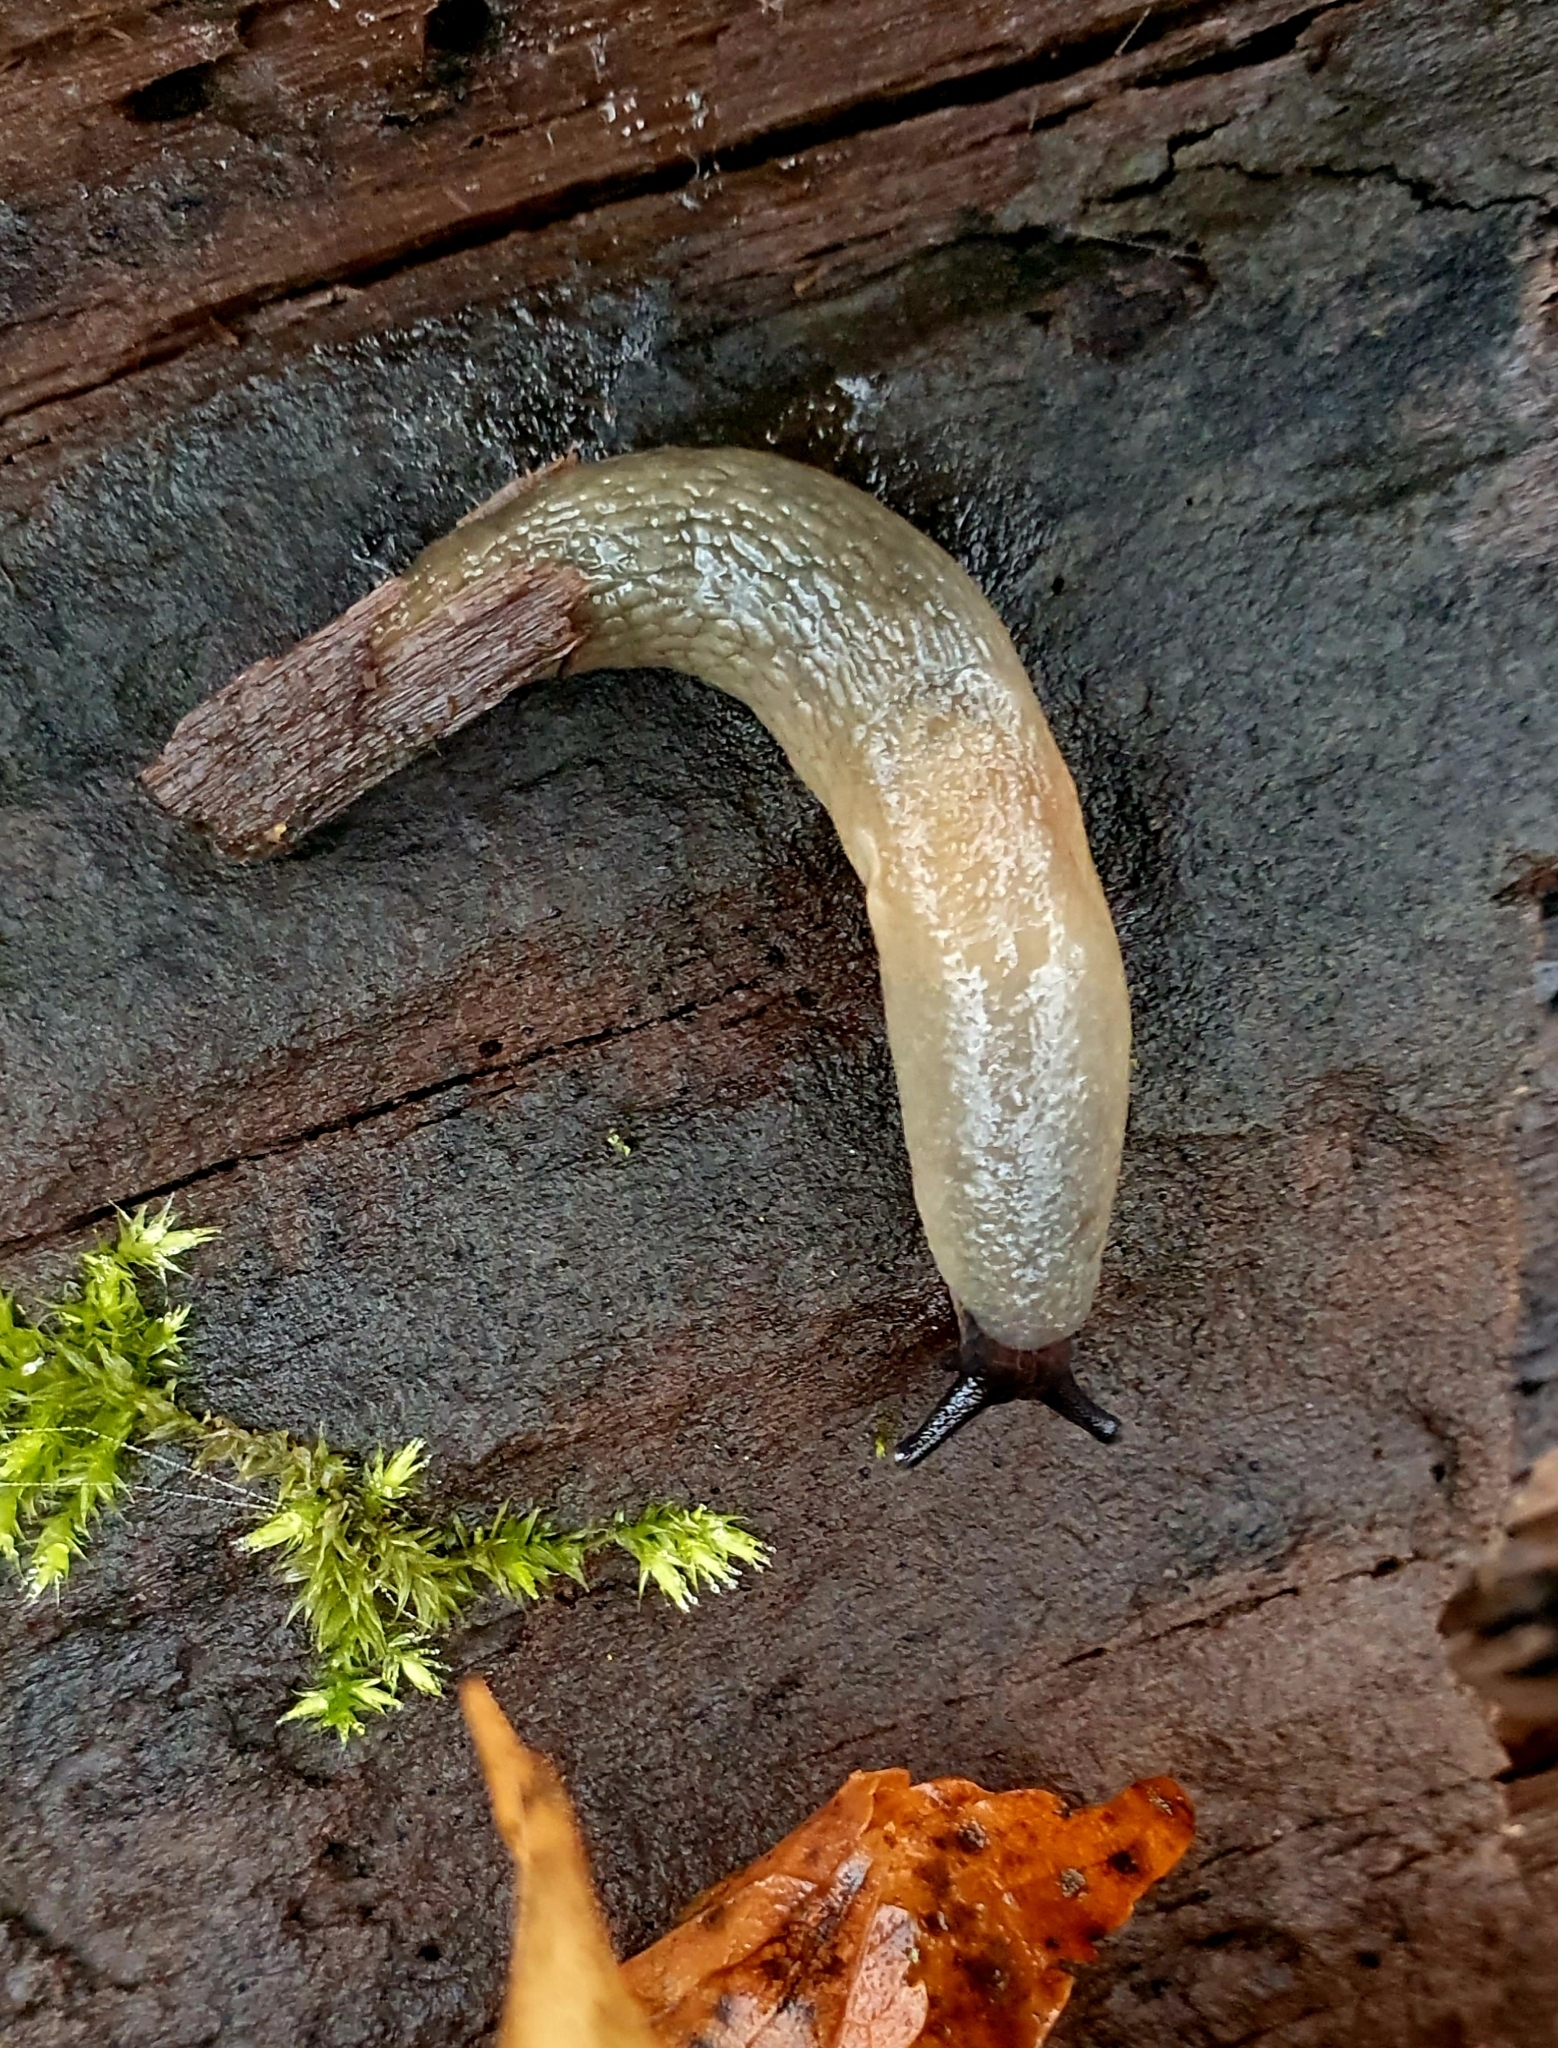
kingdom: Animalia
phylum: Mollusca
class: Gastropoda
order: Stylommatophora
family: Agriolimacidae
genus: Krynickillus
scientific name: Krynickillus melanocephalus
